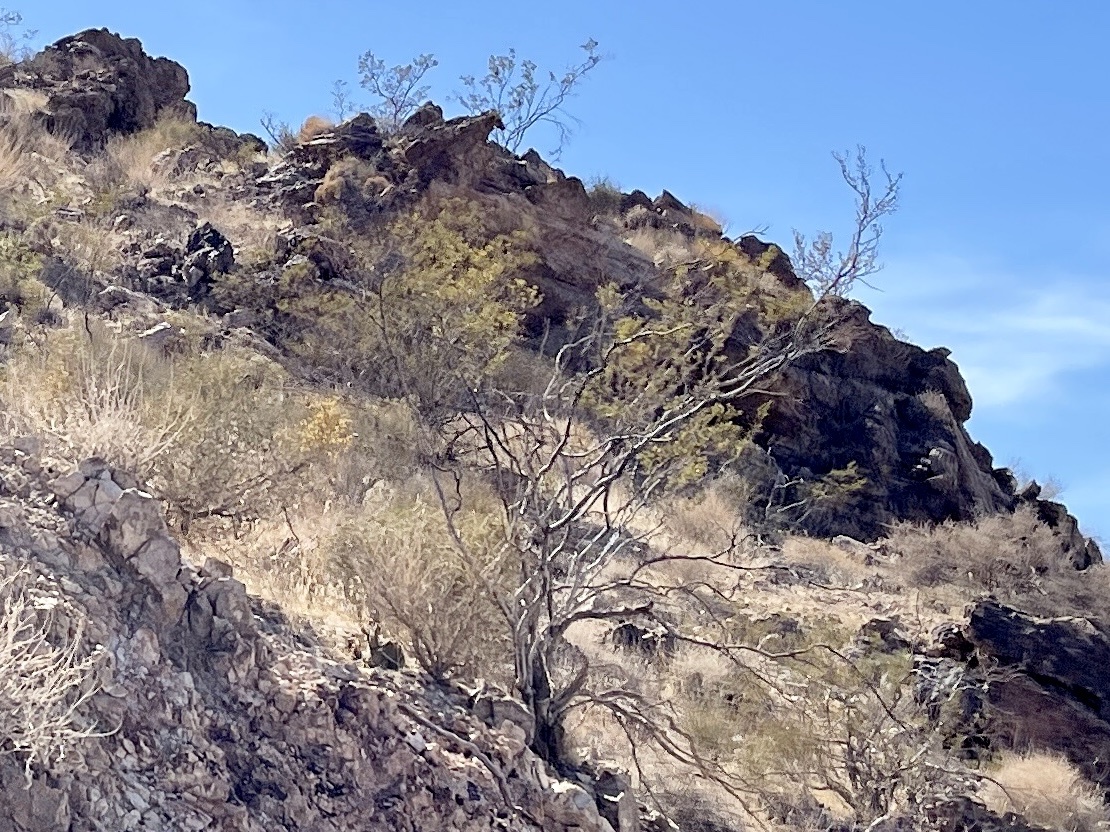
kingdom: Plantae
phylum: Tracheophyta
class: Magnoliopsida
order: Zygophyllales
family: Zygophyllaceae
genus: Larrea
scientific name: Larrea tridentata
